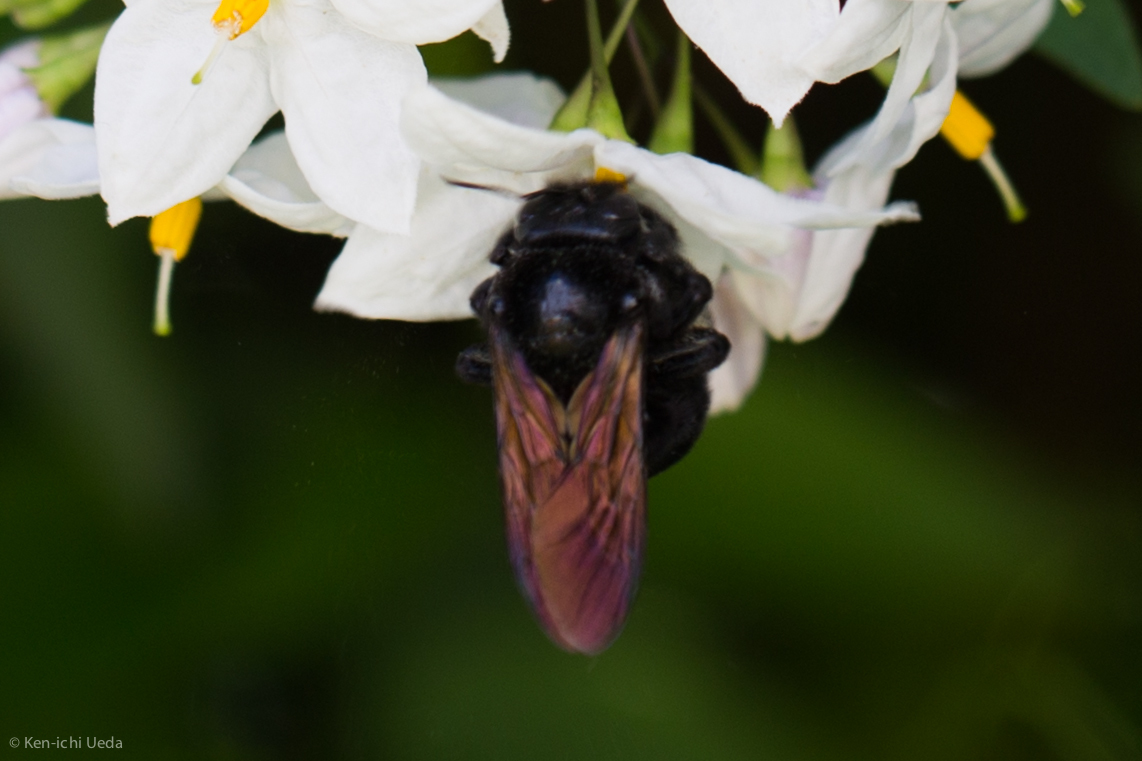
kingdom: Animalia
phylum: Arthropoda
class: Insecta
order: Hymenoptera
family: Apidae
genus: Xylocopa
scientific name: Xylocopa sonorina
